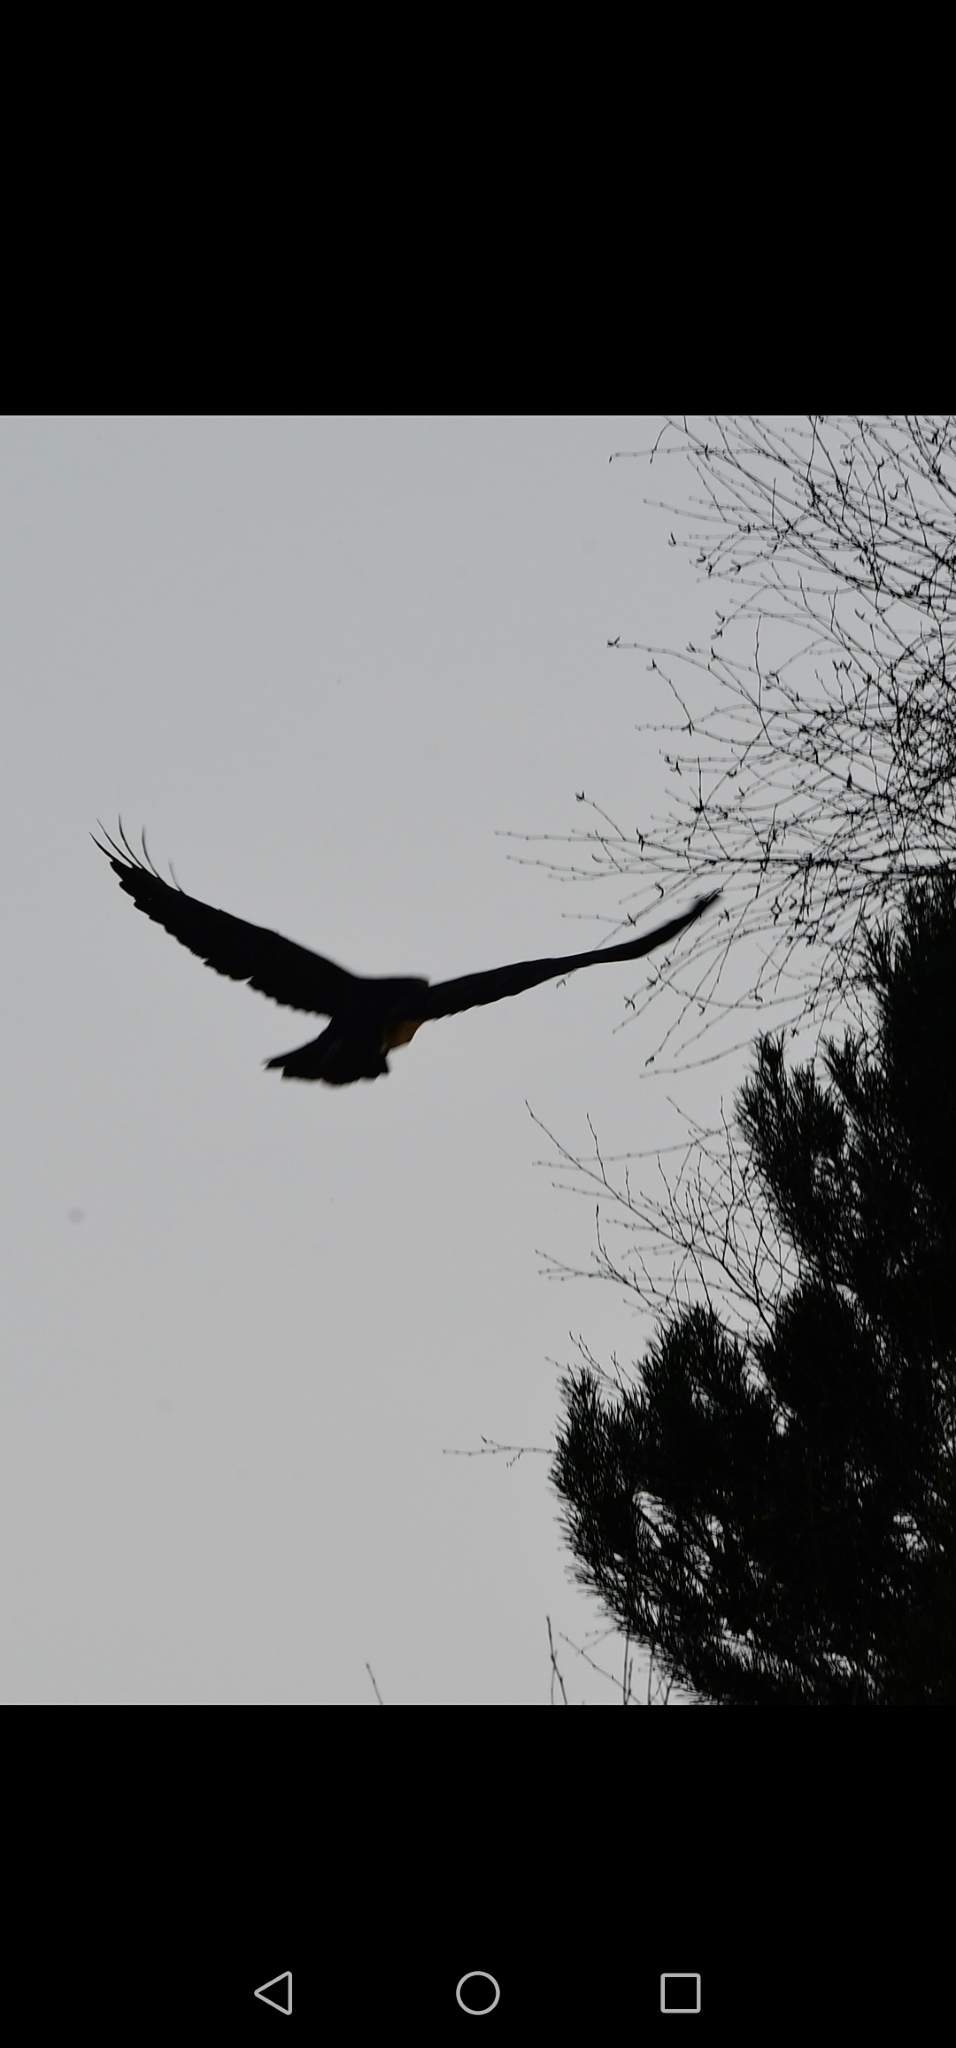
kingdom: Animalia
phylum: Chordata
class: Aves
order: Accipitriformes
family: Accipitridae
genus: Buteo
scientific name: Buteo buteo
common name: Common buzzard
